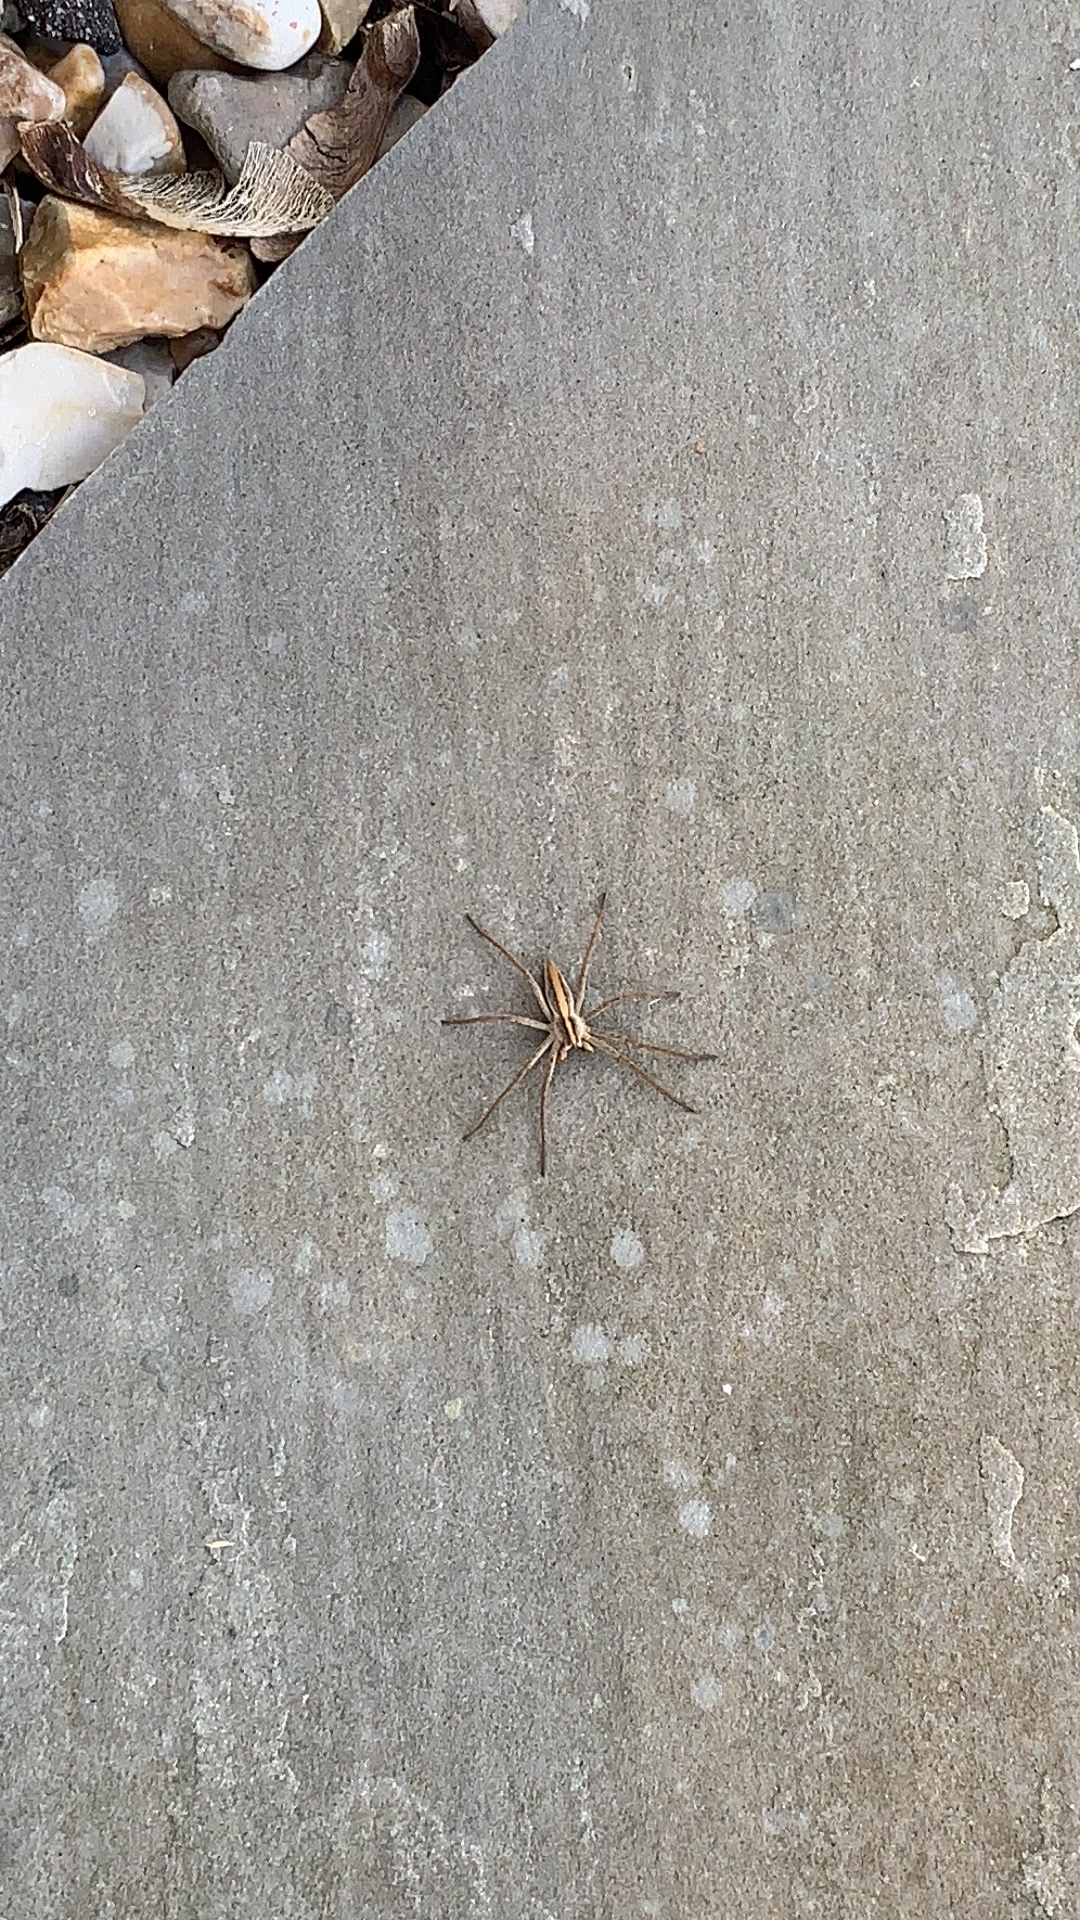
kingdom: Animalia
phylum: Arthropoda
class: Arachnida
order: Araneae
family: Pisauridae
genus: Pisaura
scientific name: Pisaura mirabilis
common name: Tent spider
